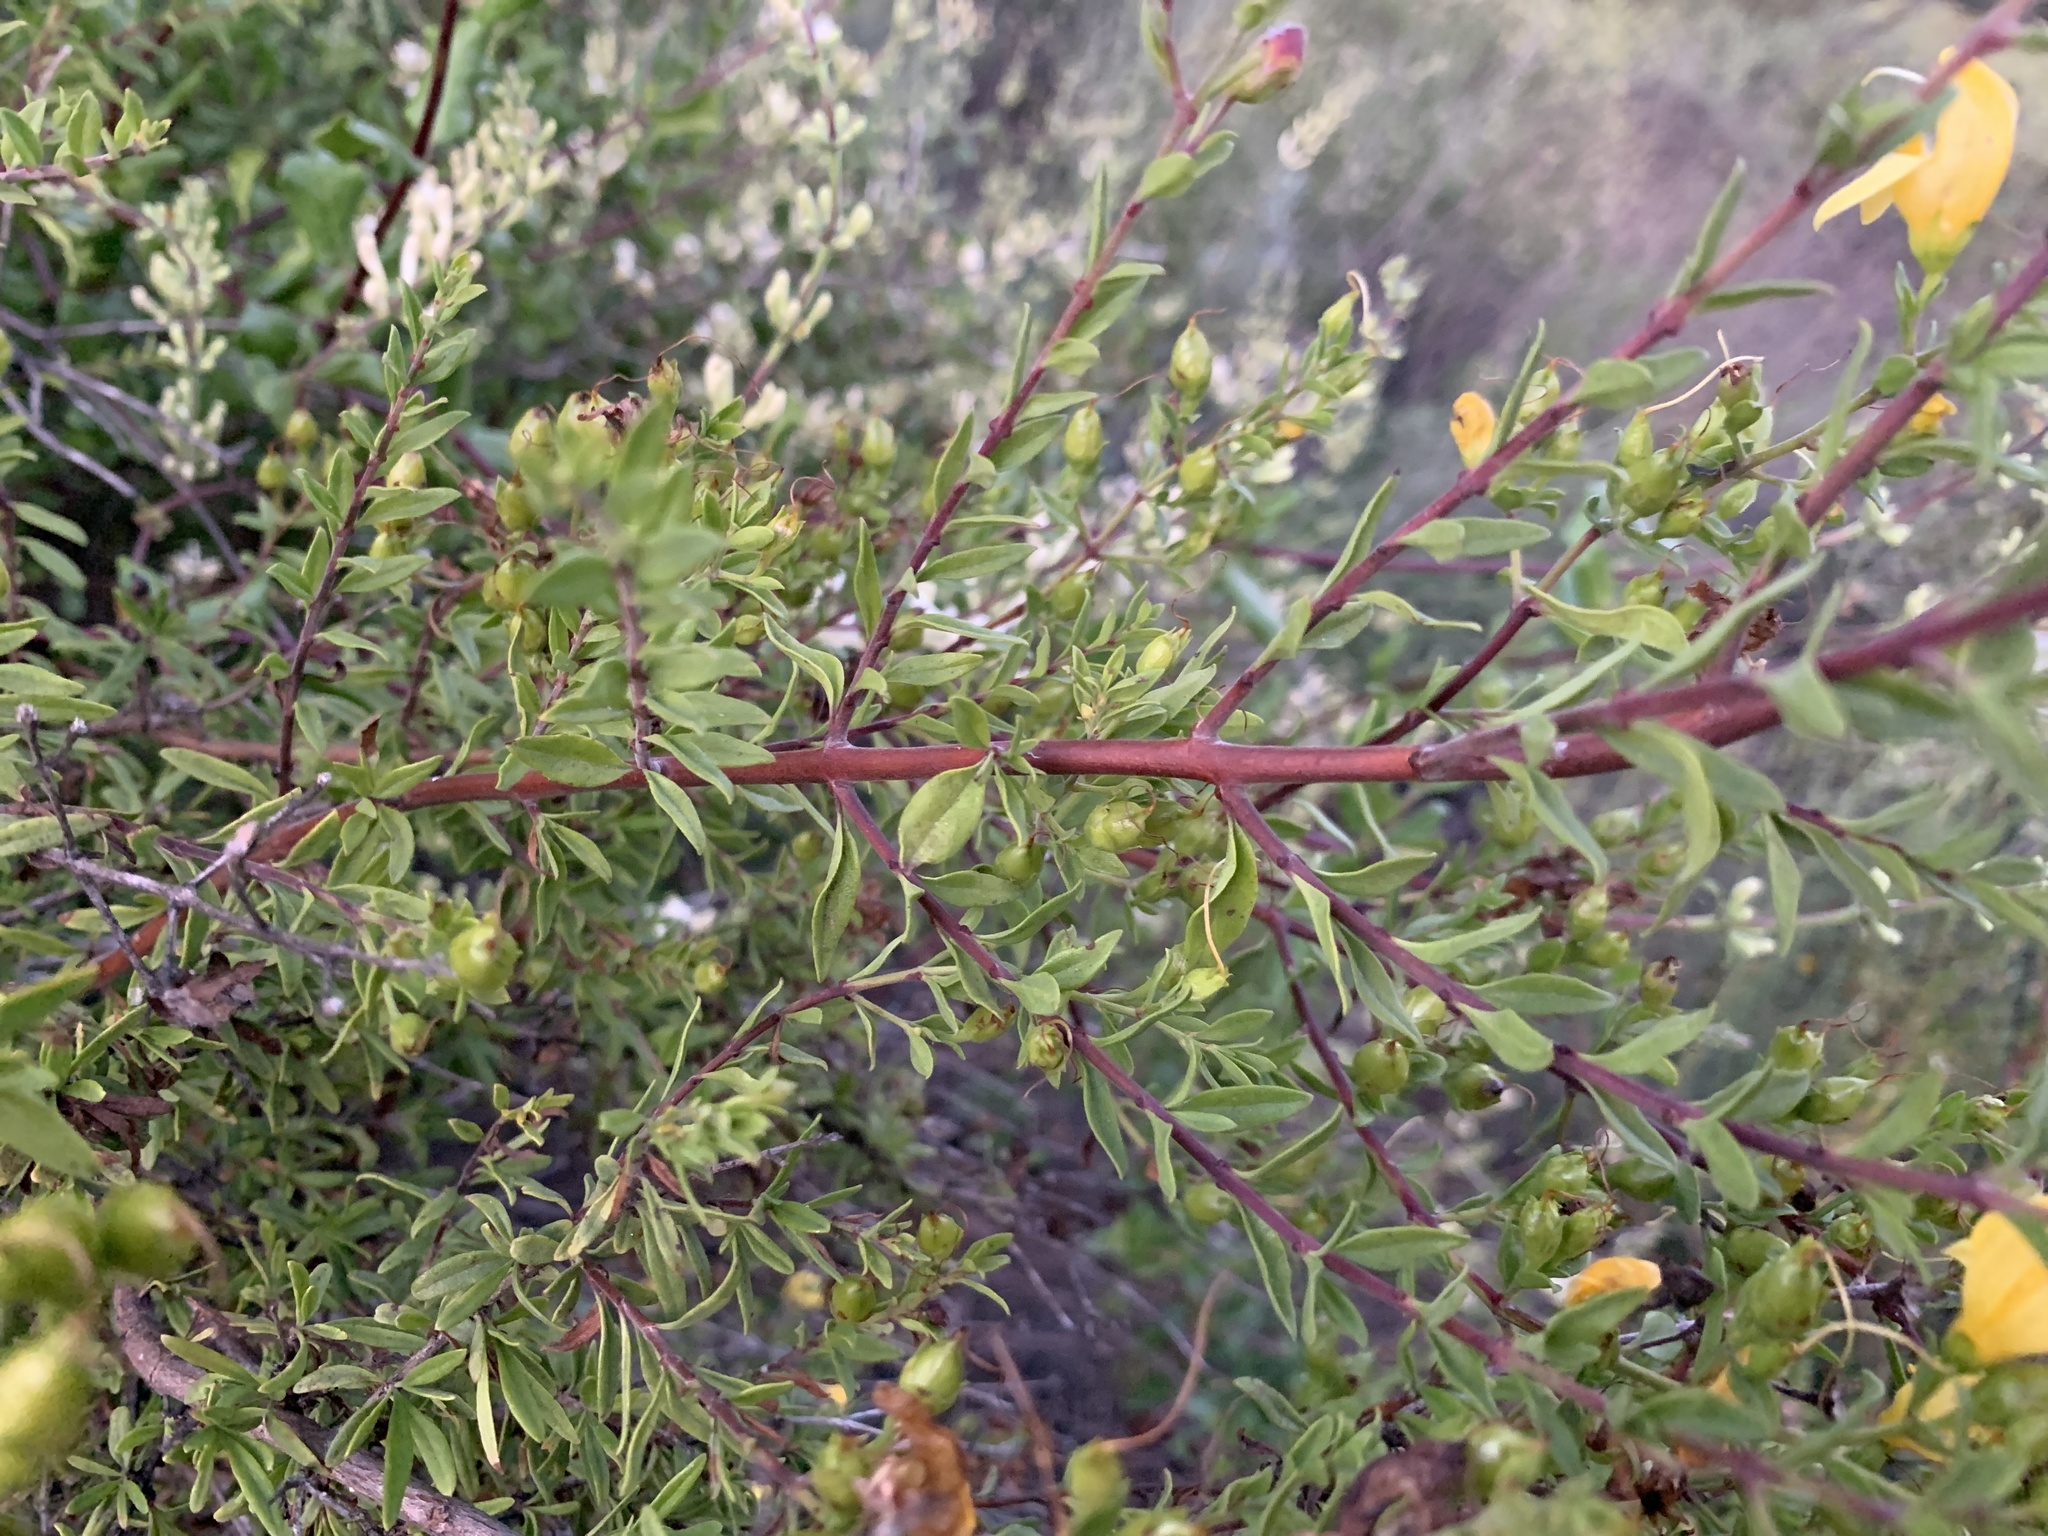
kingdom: Plantae
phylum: Tracheophyta
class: Magnoliopsida
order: Lamiales
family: Plantaginaceae
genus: Keckiella
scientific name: Keckiella antirrhinoides
